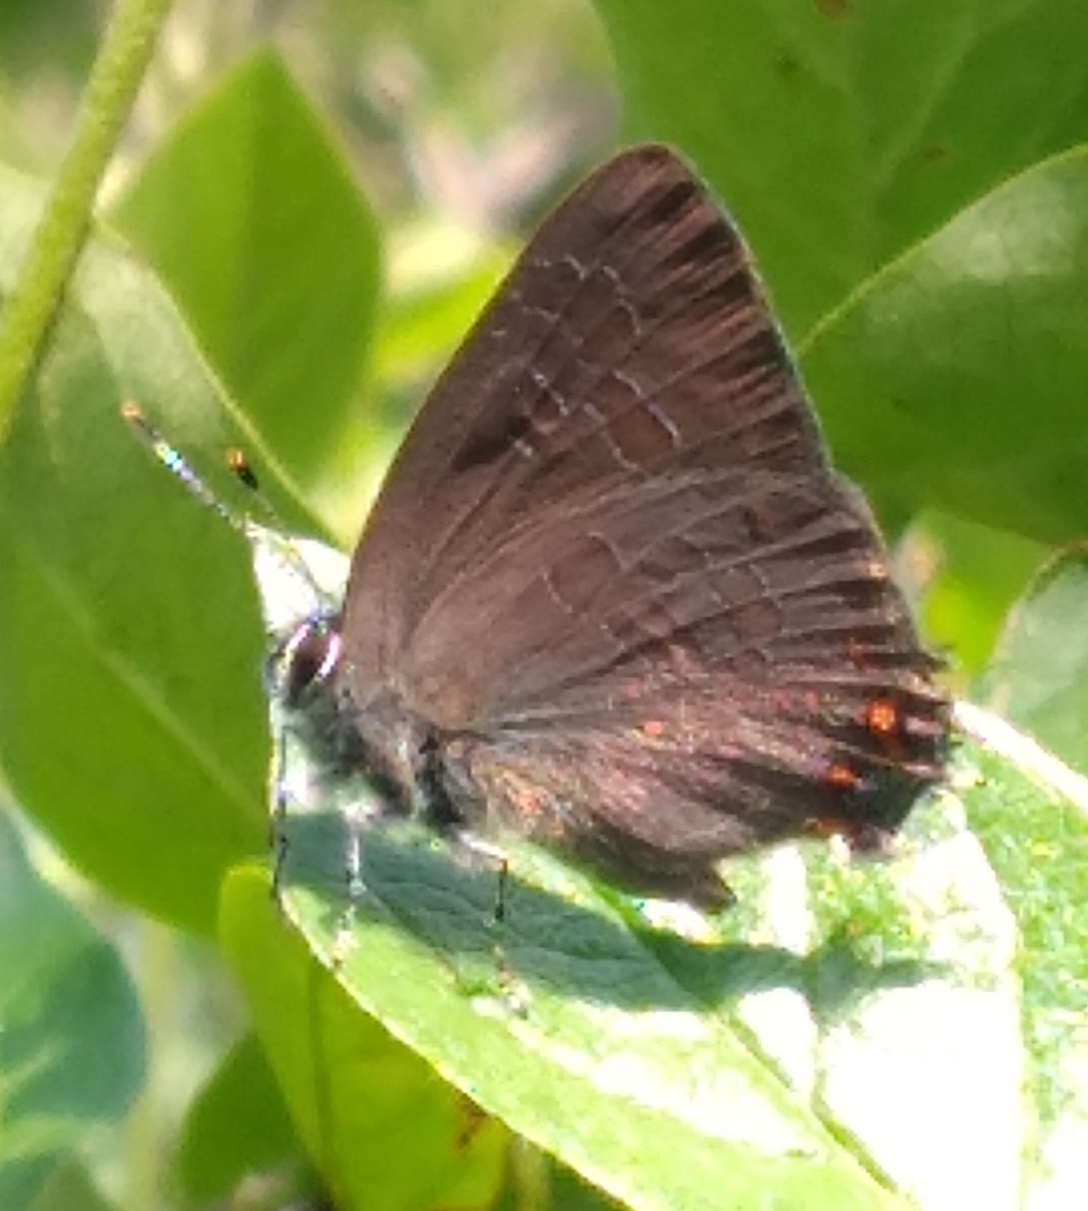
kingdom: Animalia
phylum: Arthropoda
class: Insecta
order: Lepidoptera
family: Lycaenidae
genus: Satyrium
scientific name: Satyrium liparops
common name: Striped hairstreak
